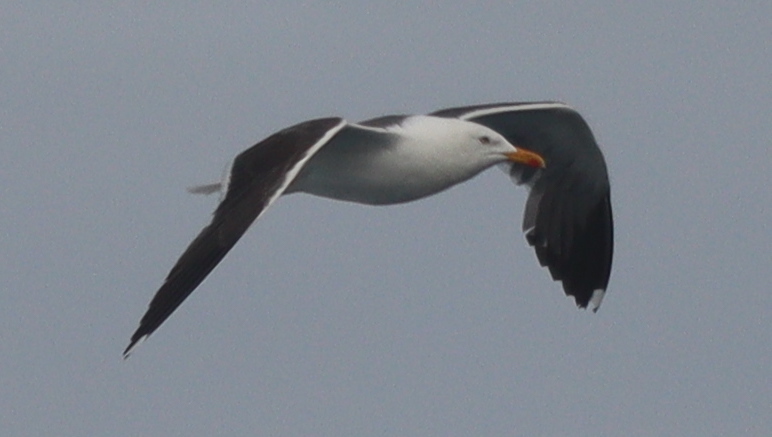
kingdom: Animalia
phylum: Chordata
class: Aves
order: Charadriiformes
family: Laridae
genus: Larus
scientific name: Larus fuscus
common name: Lesser black-backed gull
